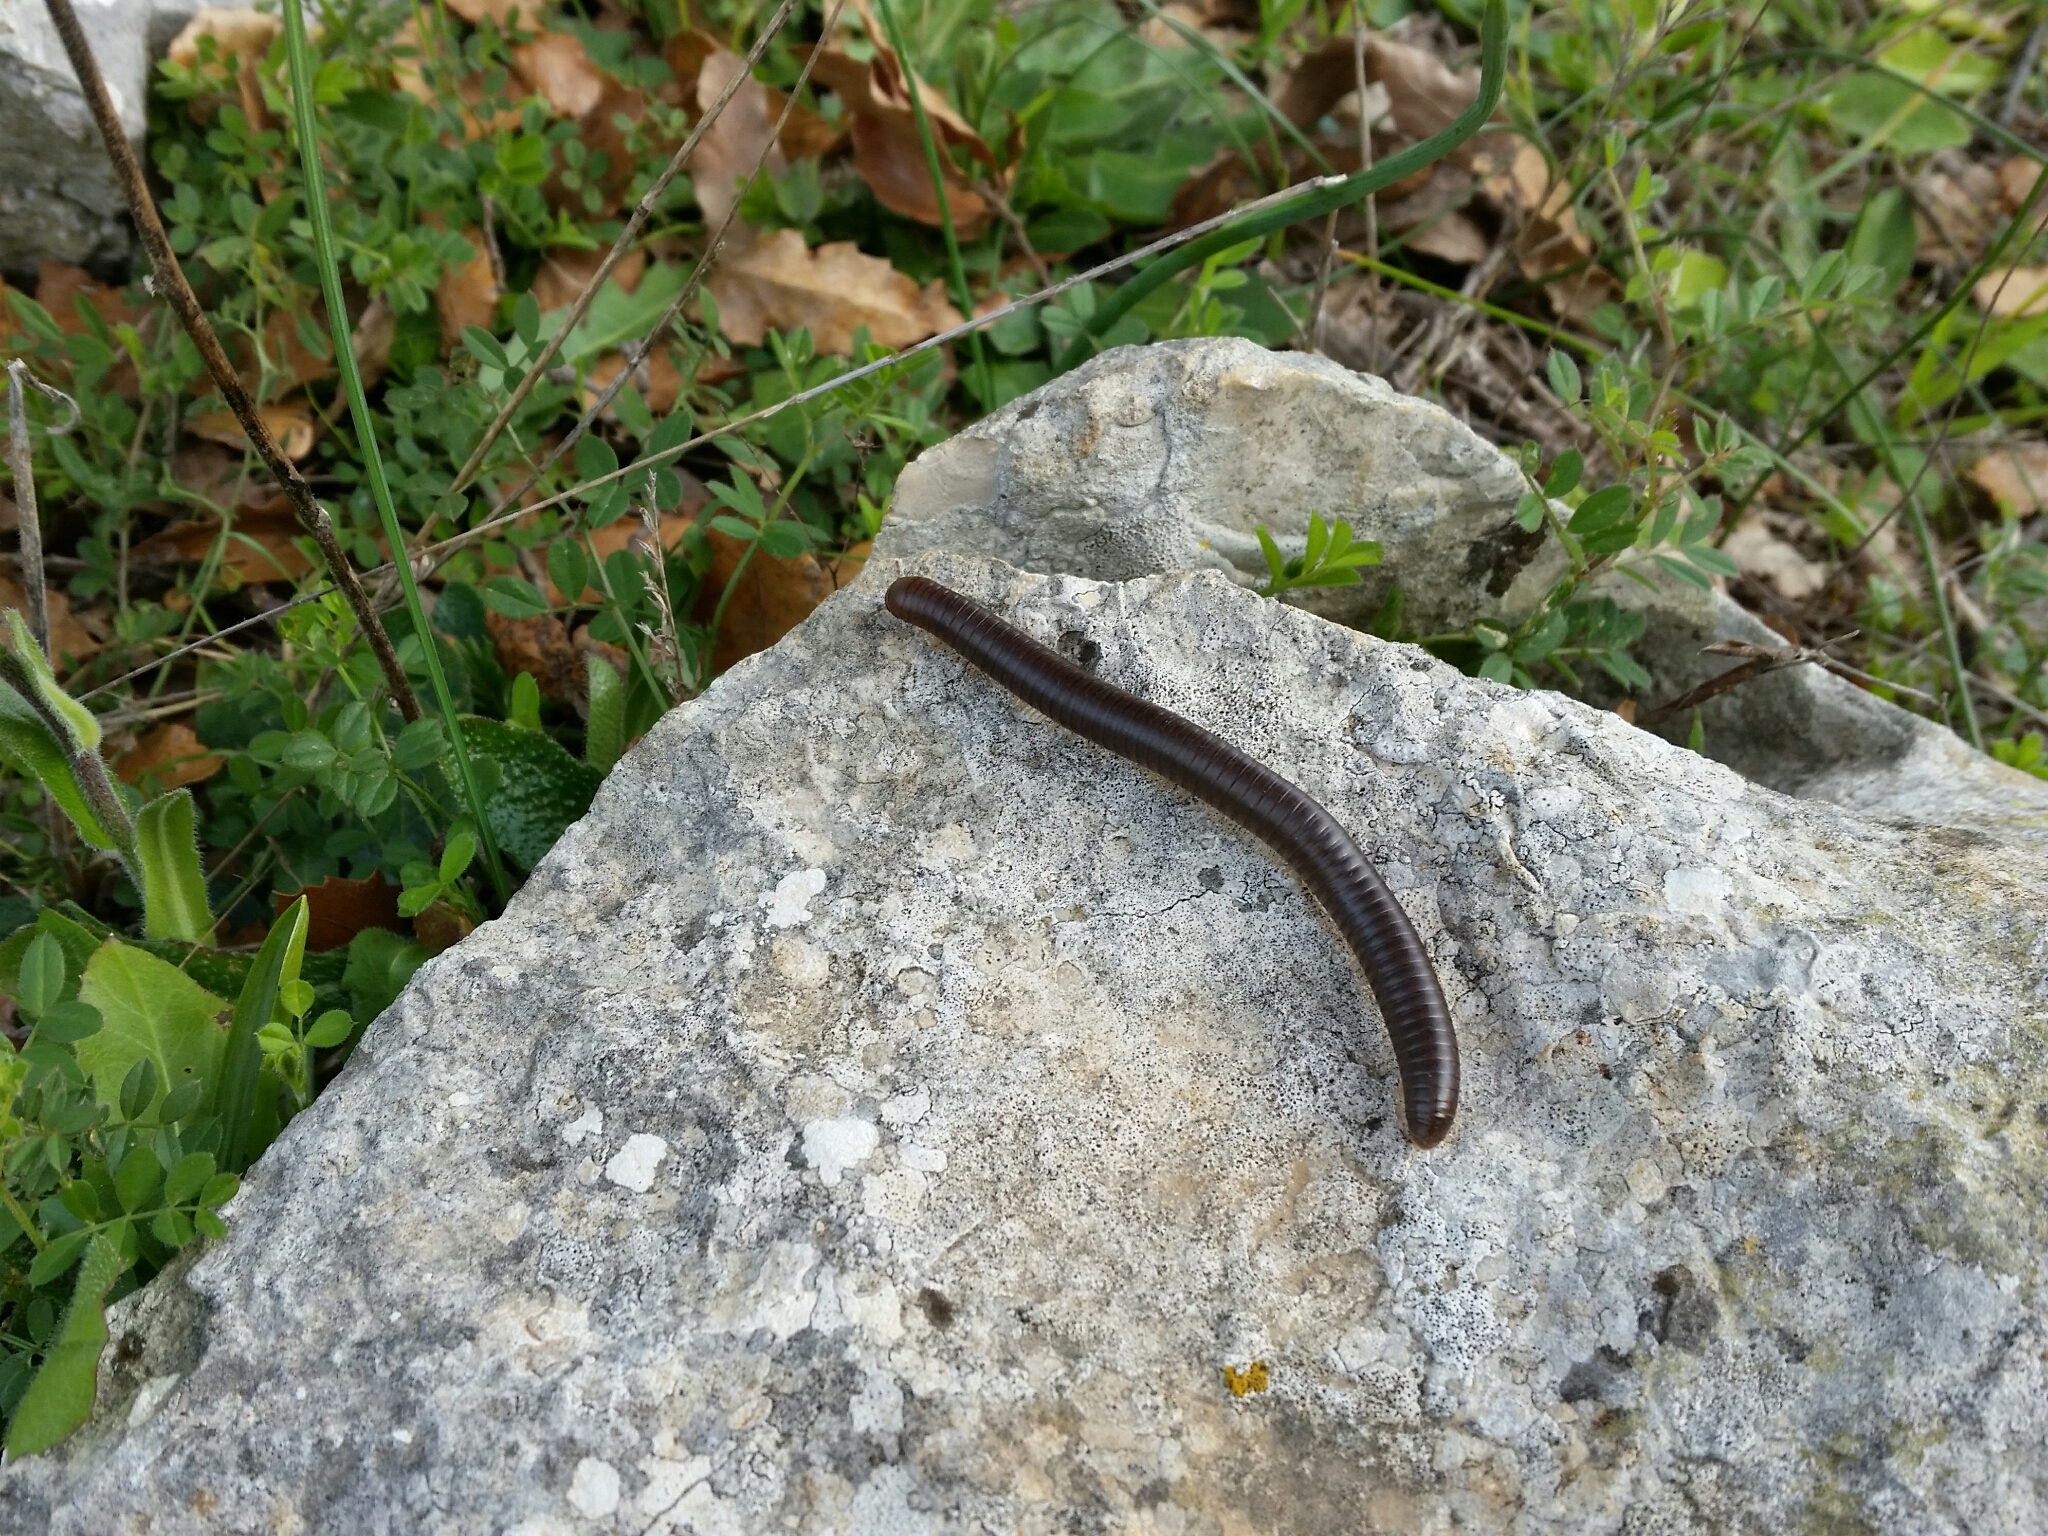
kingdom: Animalia
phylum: Arthropoda
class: Diplopoda
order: Julida
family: Julidae
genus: Pachyiulus
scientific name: Pachyiulus flavipes
